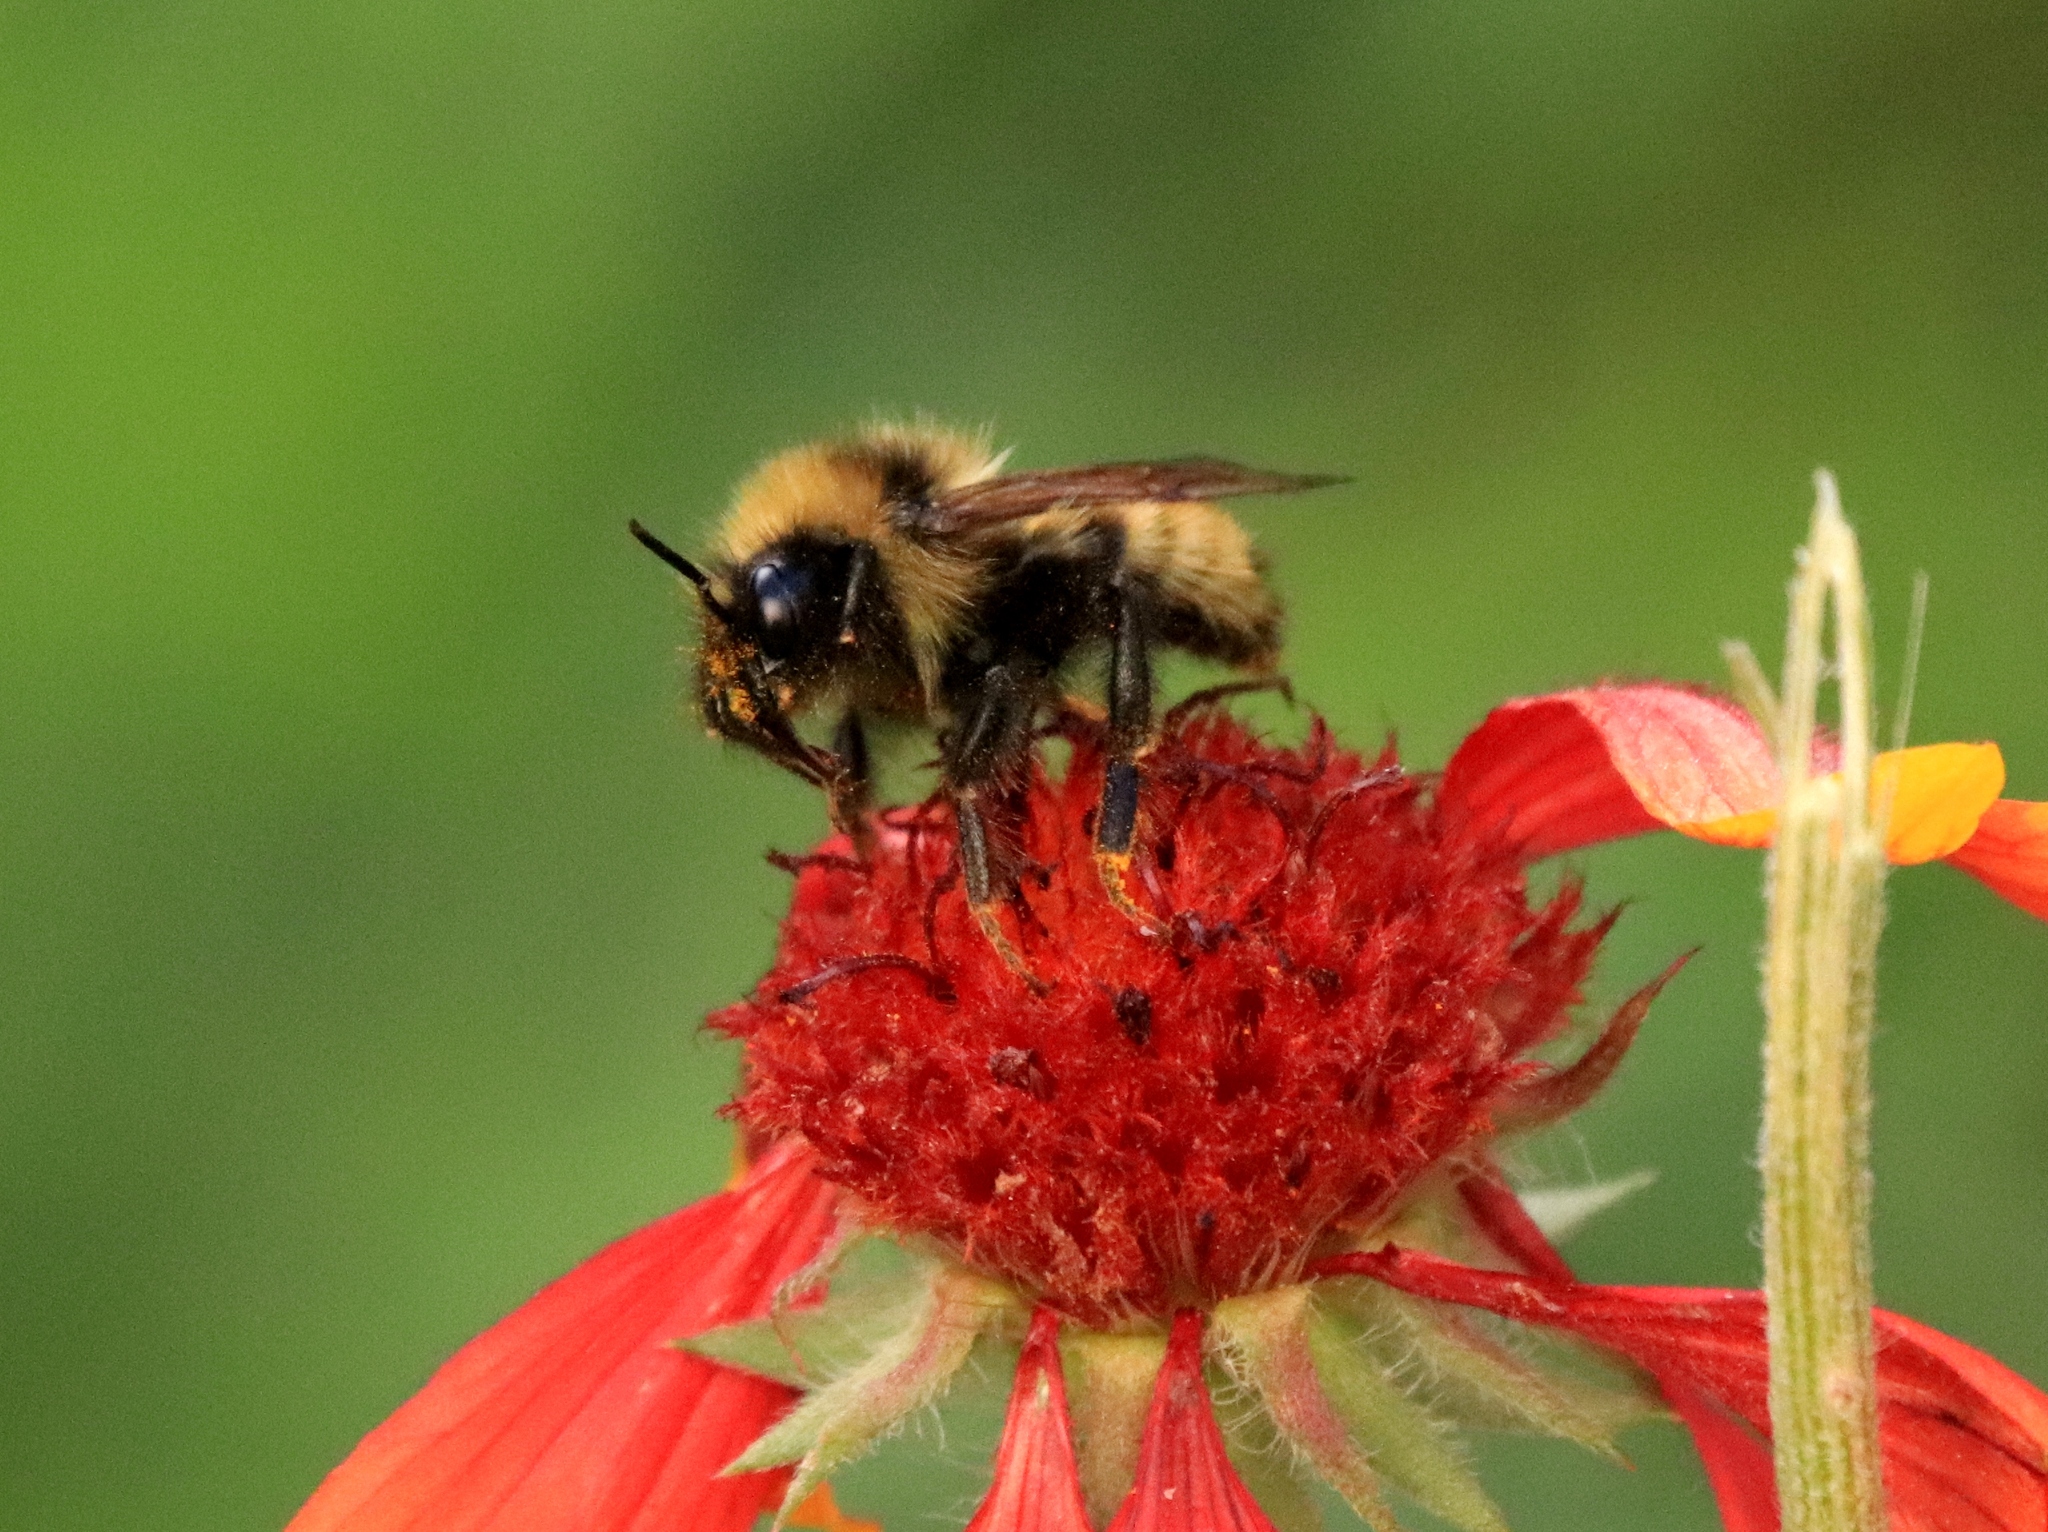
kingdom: Animalia
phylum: Arthropoda
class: Insecta
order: Hymenoptera
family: Apidae
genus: Bombus
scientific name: Bombus insularis
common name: Indiscriminate cuckoo bumble bee
